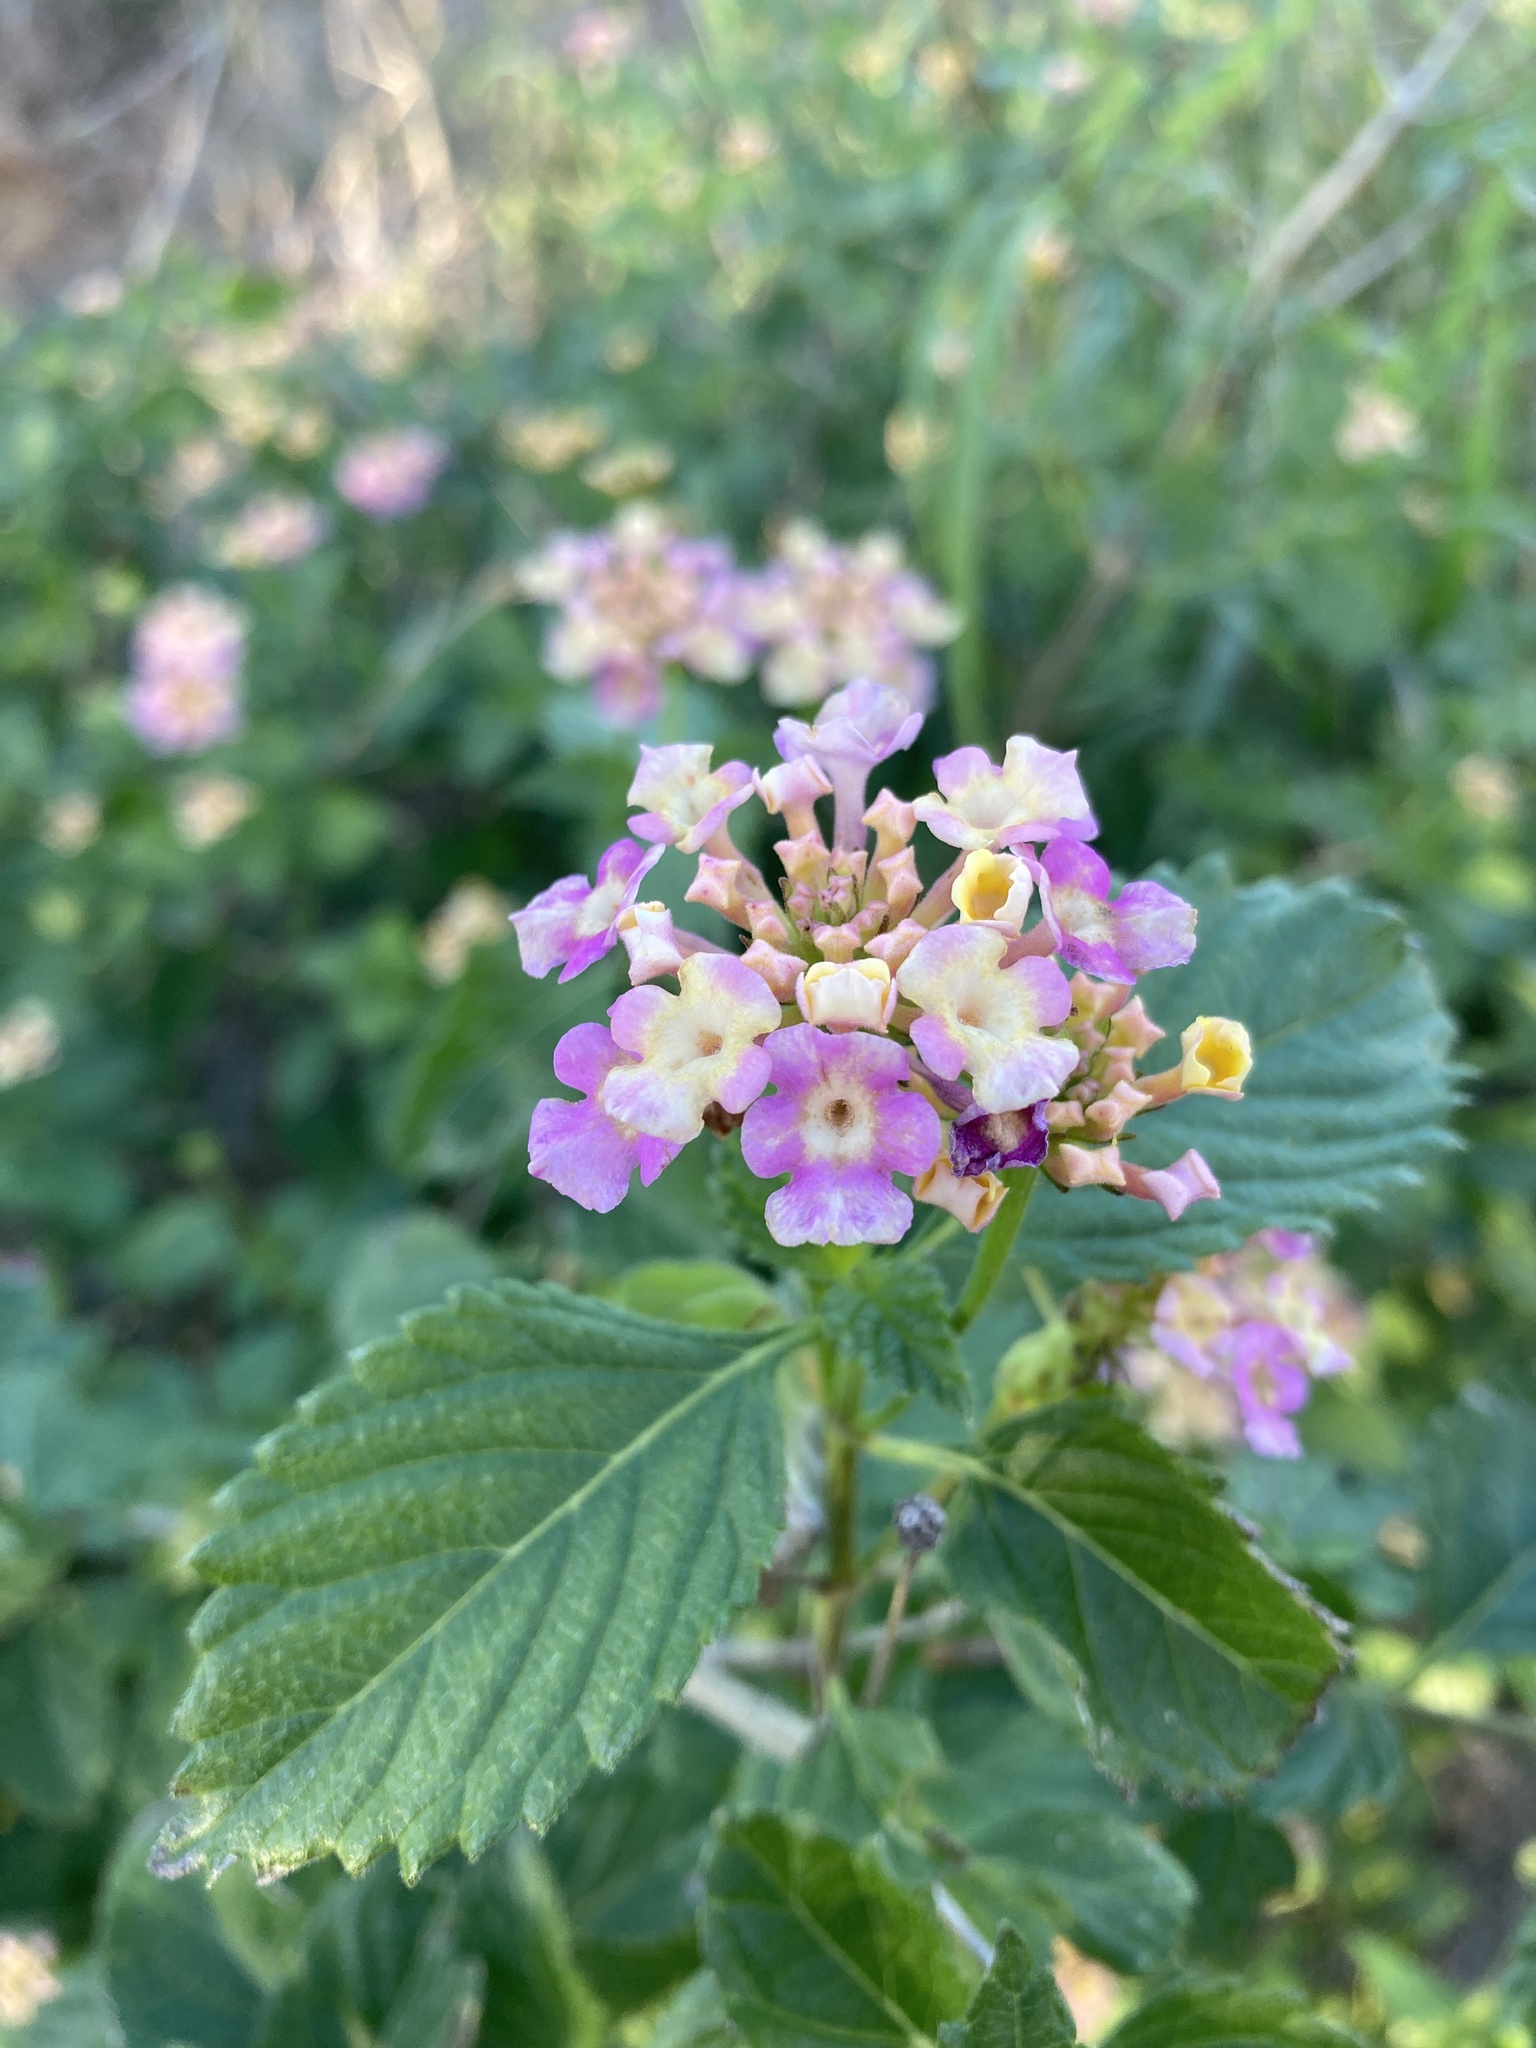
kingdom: Plantae
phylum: Tracheophyta
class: Magnoliopsida
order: Lamiales
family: Verbenaceae
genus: Lantana
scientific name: Lantana strigocamara
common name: Lantana
